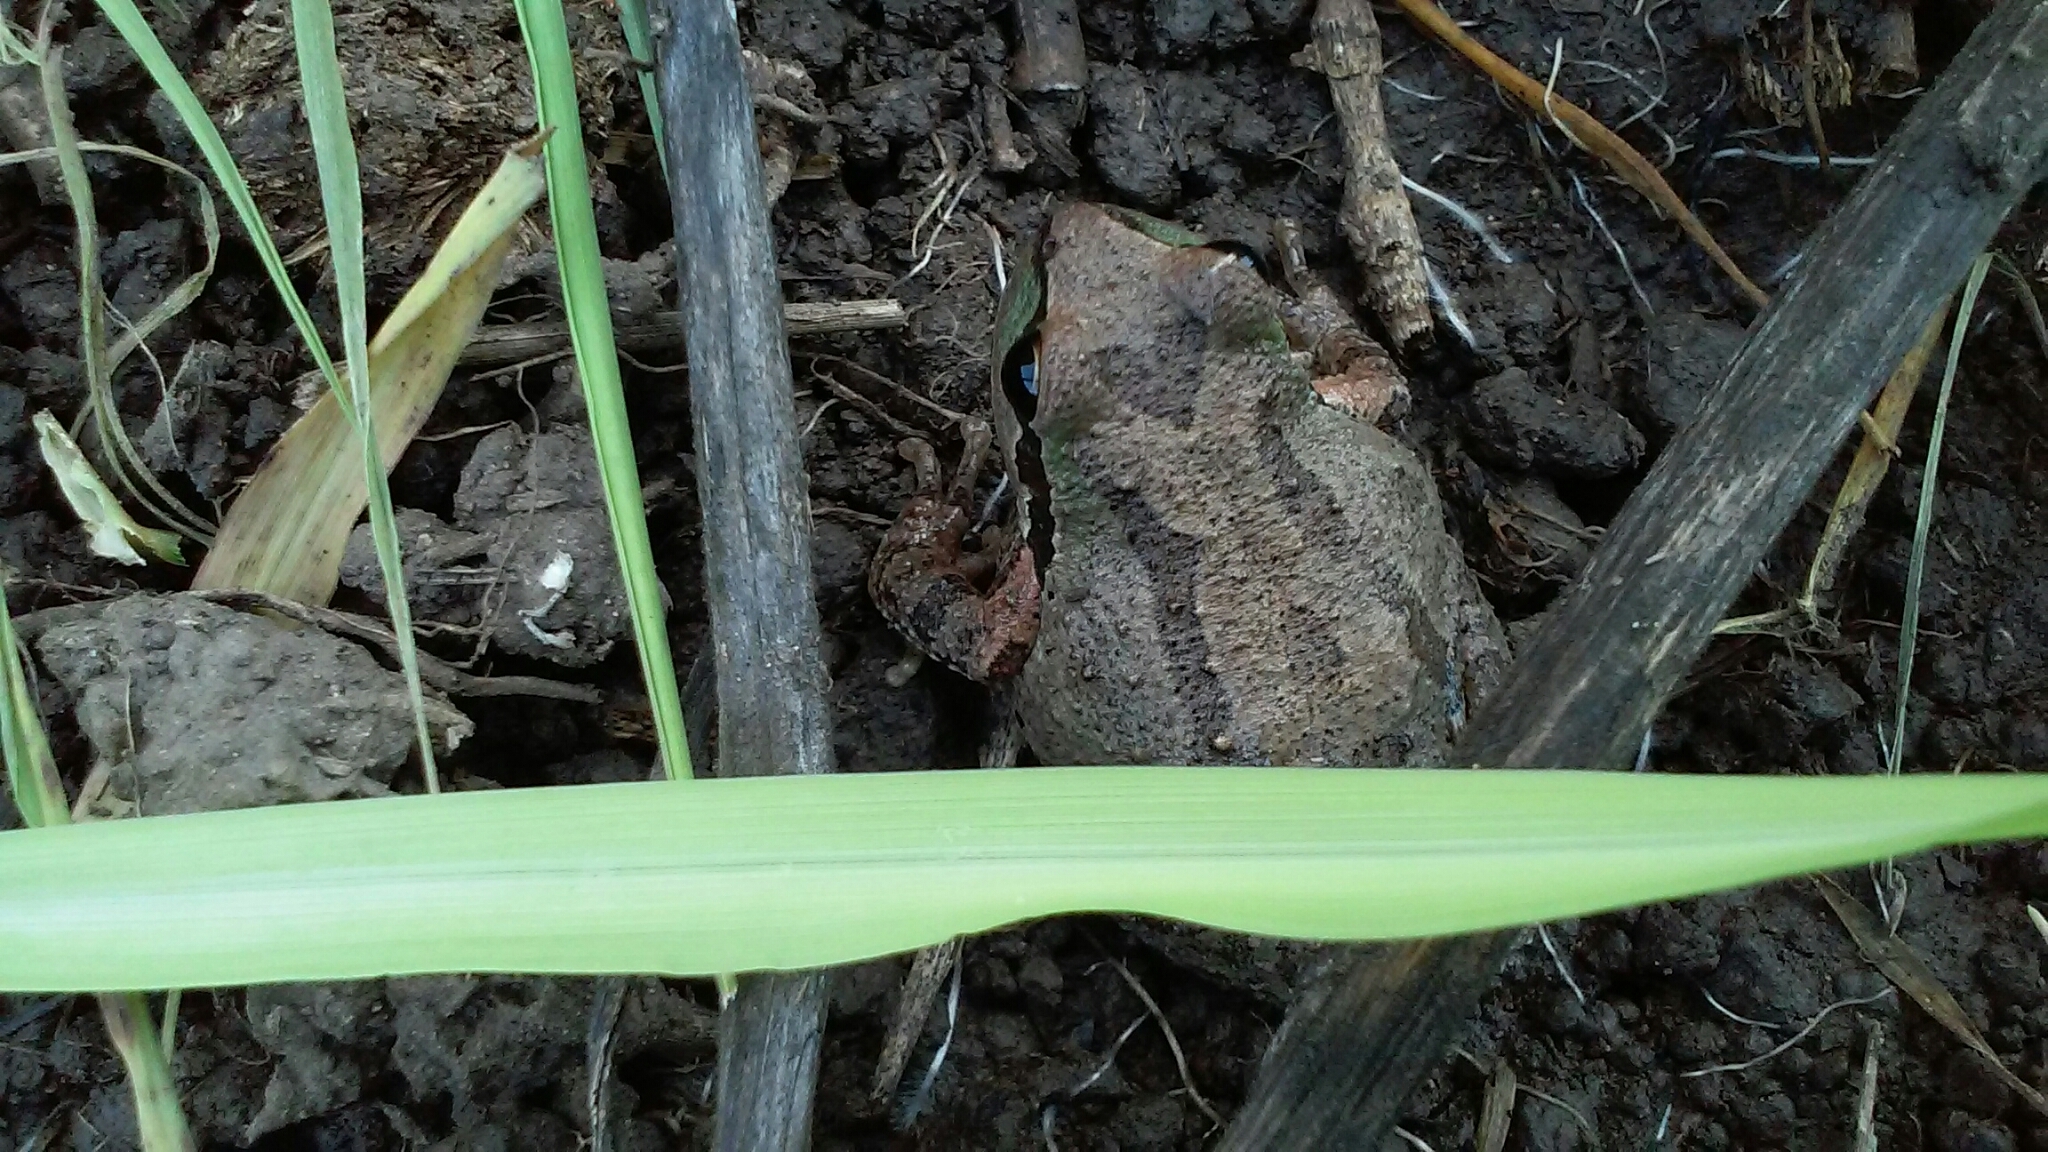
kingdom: Animalia
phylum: Chordata
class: Amphibia
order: Anura
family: Hylidae
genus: Pseudacris
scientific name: Pseudacris regilla
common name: Pacific chorus frog
